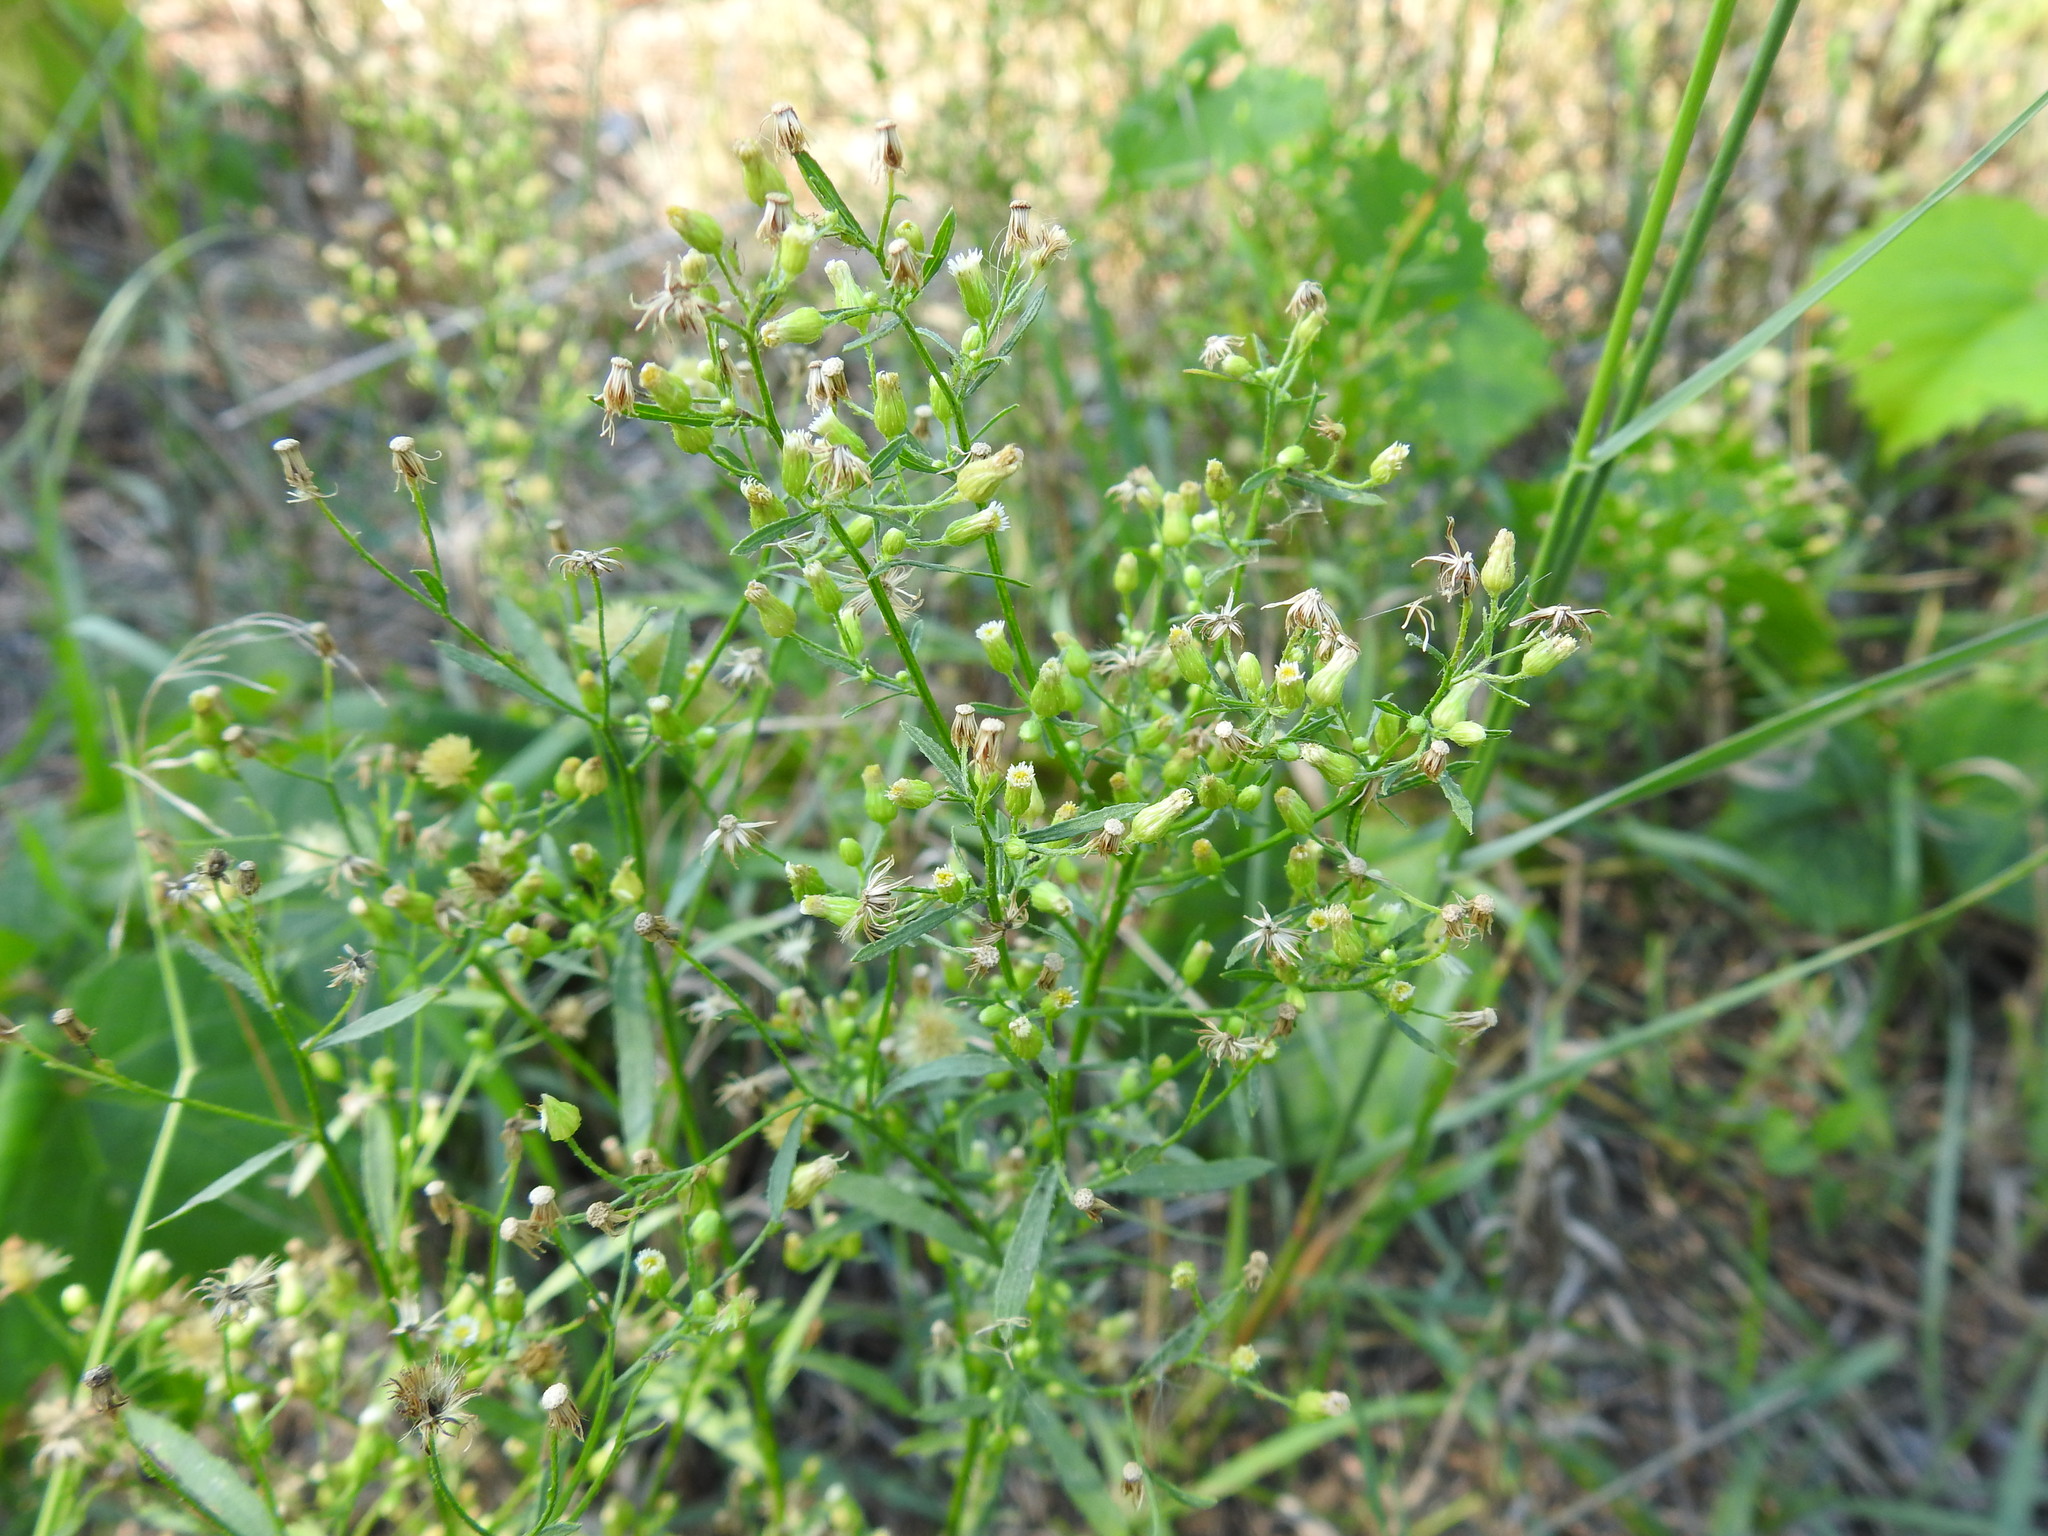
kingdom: Plantae
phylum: Tracheophyta
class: Magnoliopsida
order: Asterales
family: Asteraceae
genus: Erigeron
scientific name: Erigeron canadensis
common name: Canadian fleabane
